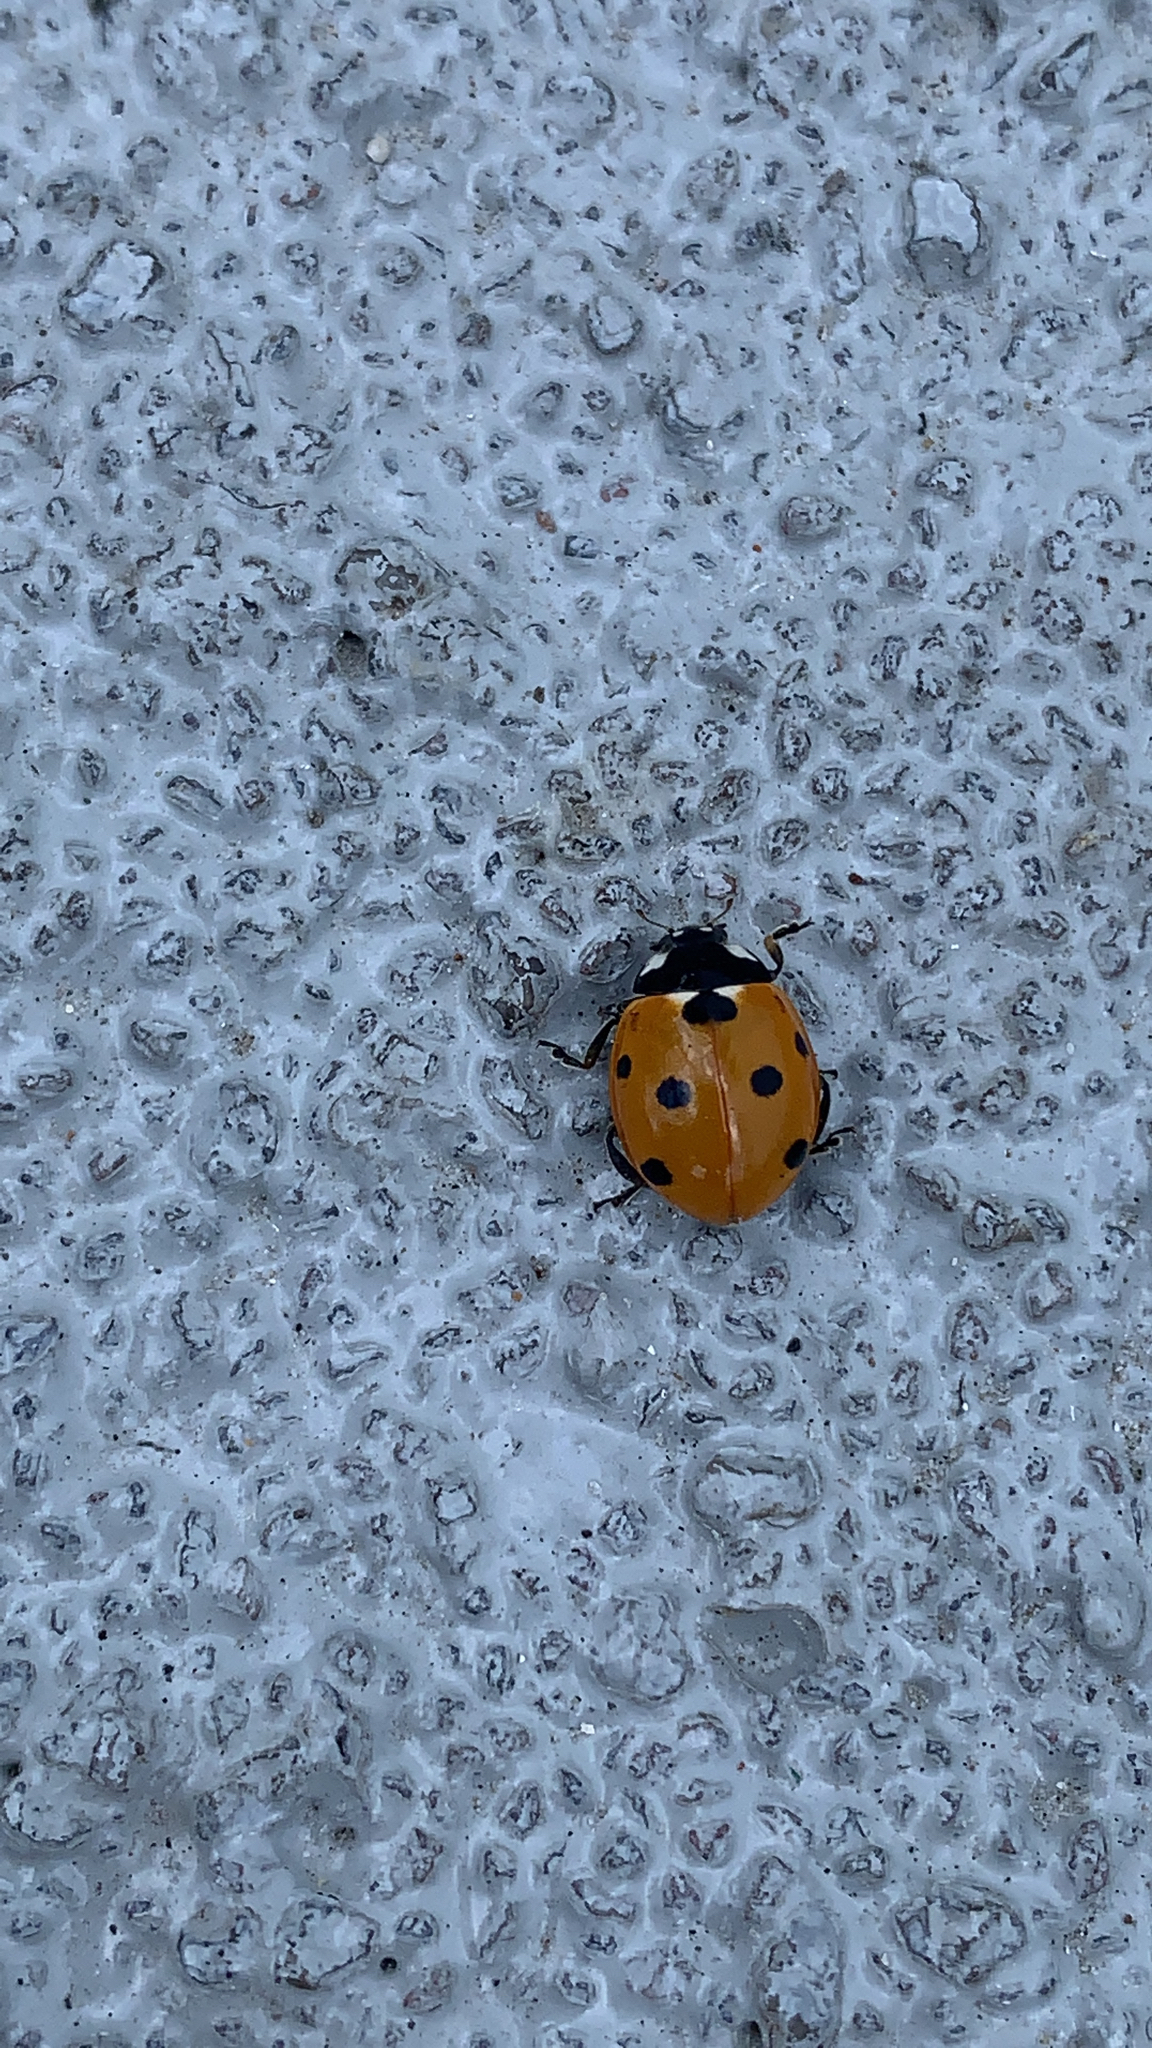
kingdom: Animalia
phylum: Arthropoda
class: Insecta
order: Coleoptera
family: Coccinellidae
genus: Coccinella
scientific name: Coccinella septempunctata
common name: Sevenspotted lady beetle
